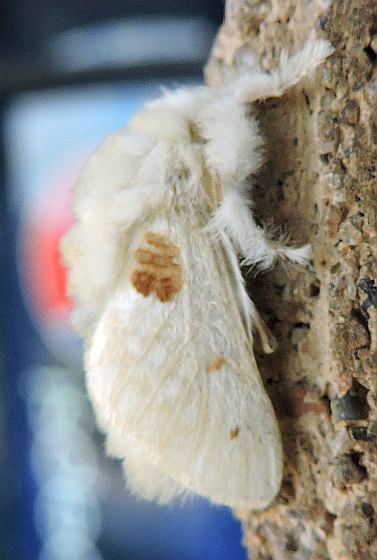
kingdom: Animalia
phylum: Arthropoda
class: Insecta
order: Lepidoptera
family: Megalopygidae
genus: Megalopyge
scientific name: Megalopyge lapena
